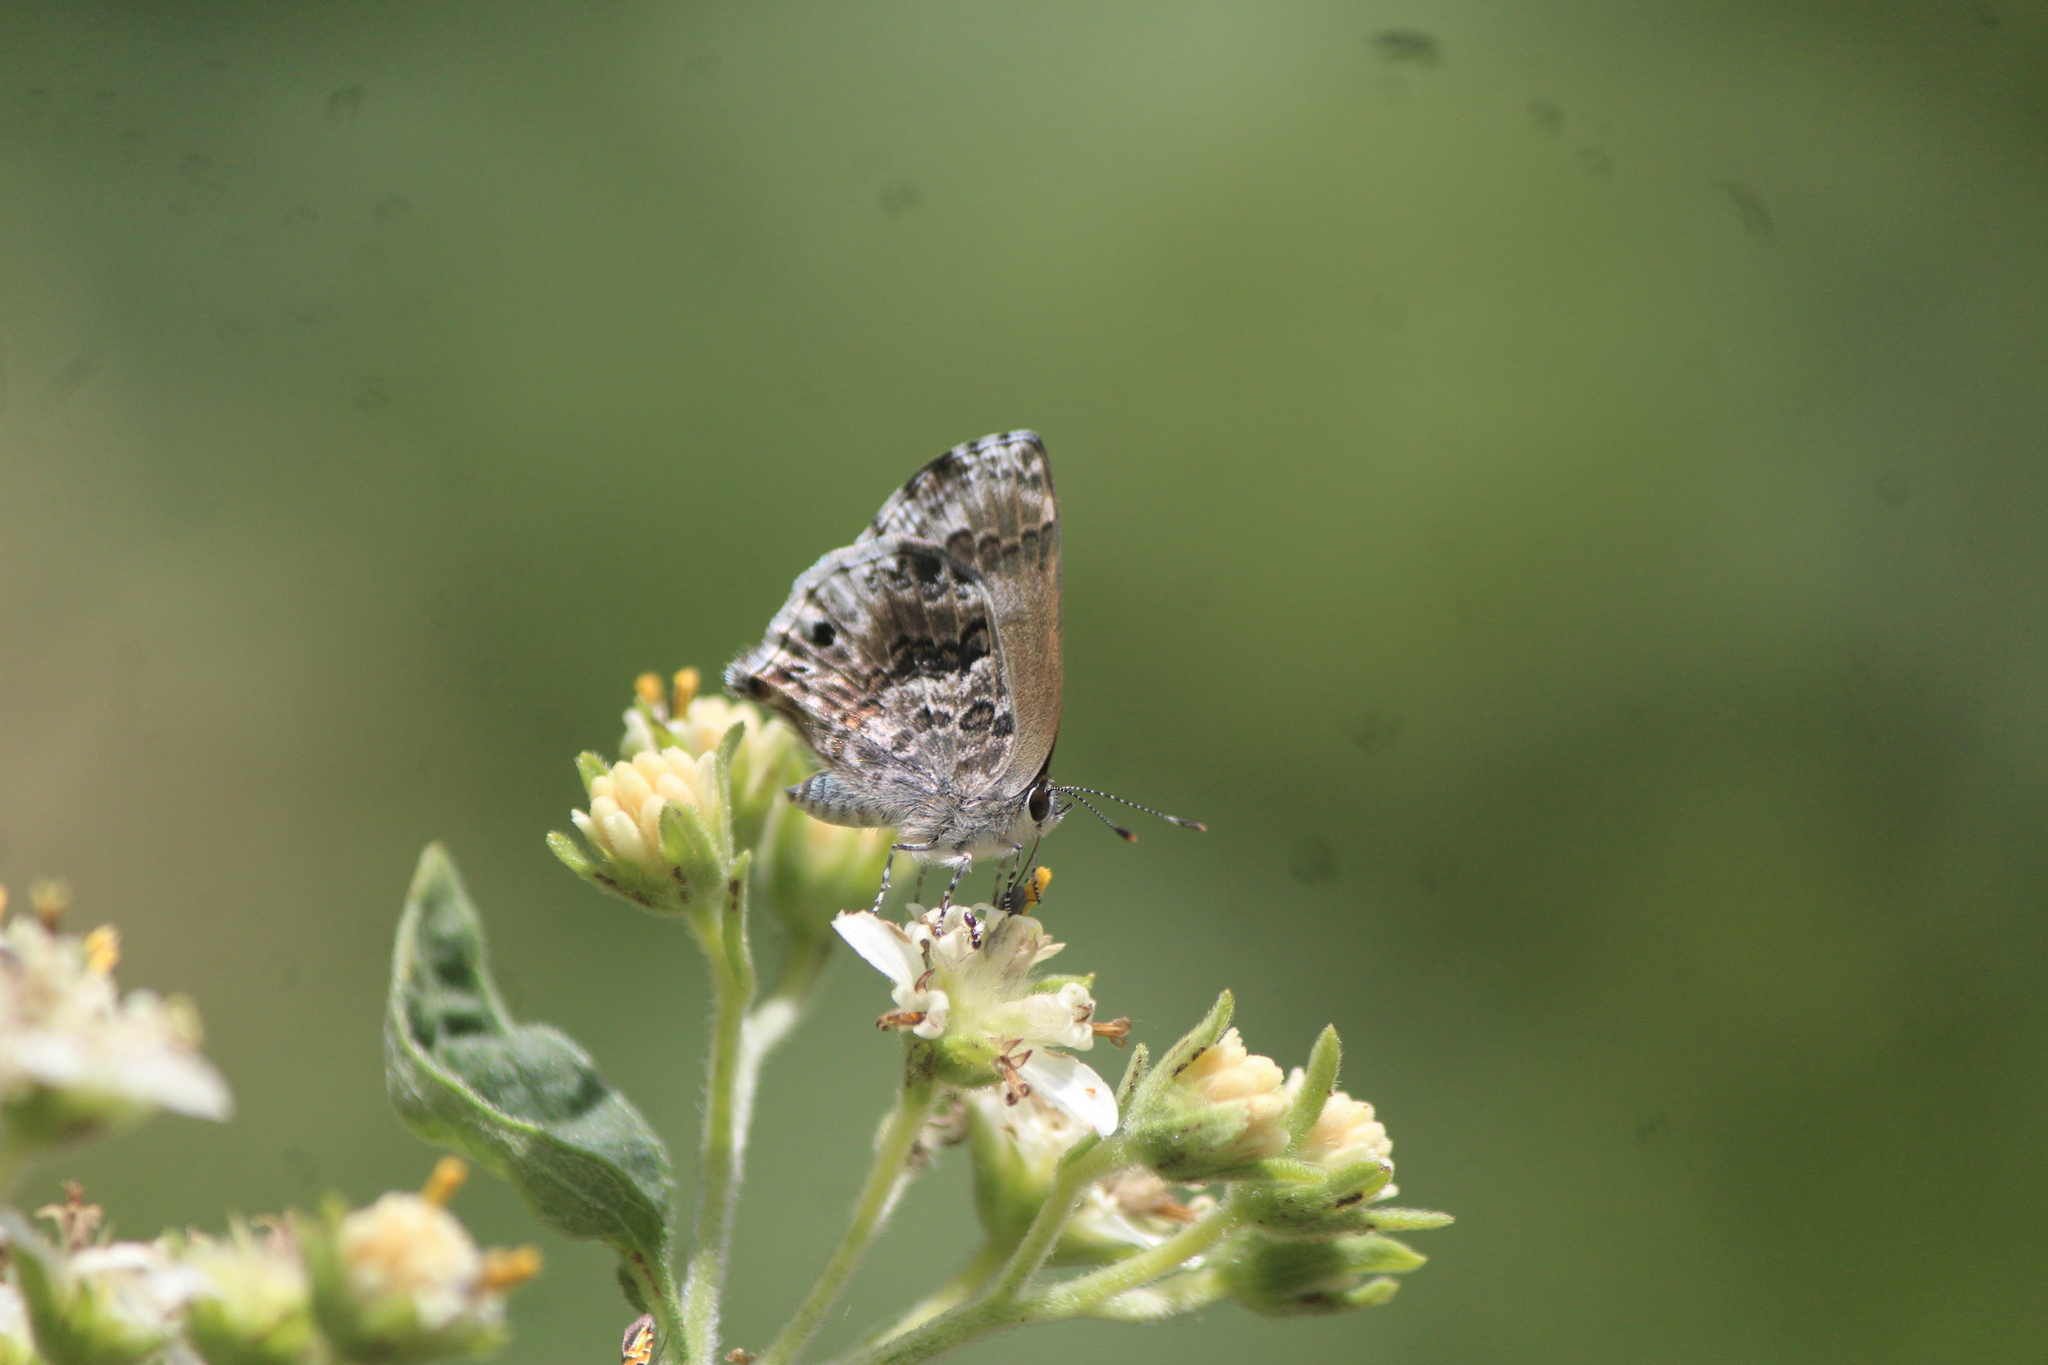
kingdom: Animalia
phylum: Arthropoda
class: Insecta
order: Lepidoptera
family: Lycaenidae
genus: Thecla
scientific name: Thecla cestri
